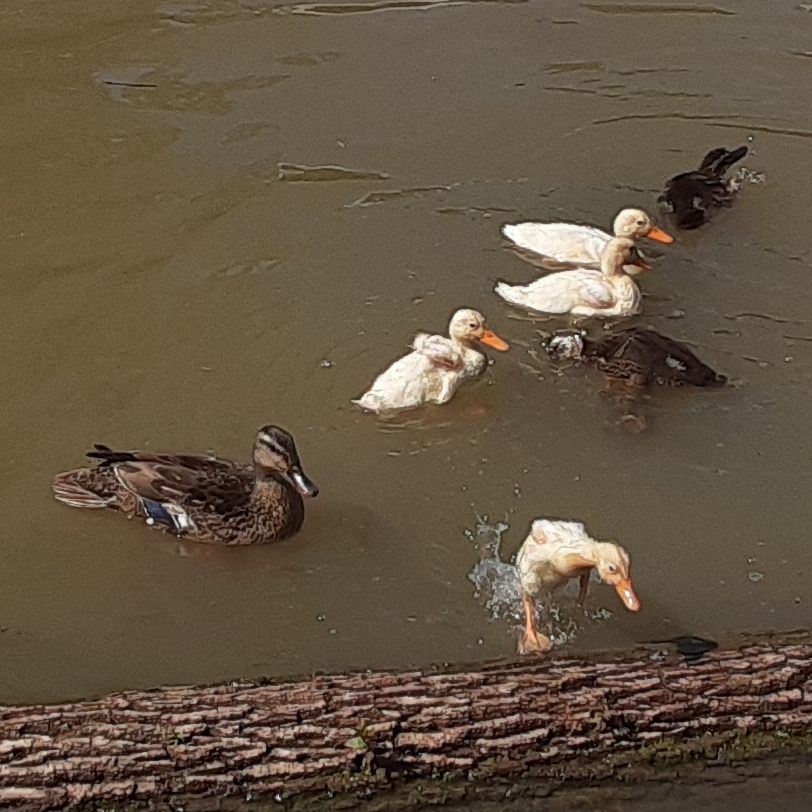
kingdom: Animalia
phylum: Chordata
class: Aves
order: Anseriformes
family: Anatidae
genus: Anas
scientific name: Anas platyrhynchos
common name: Mallard
